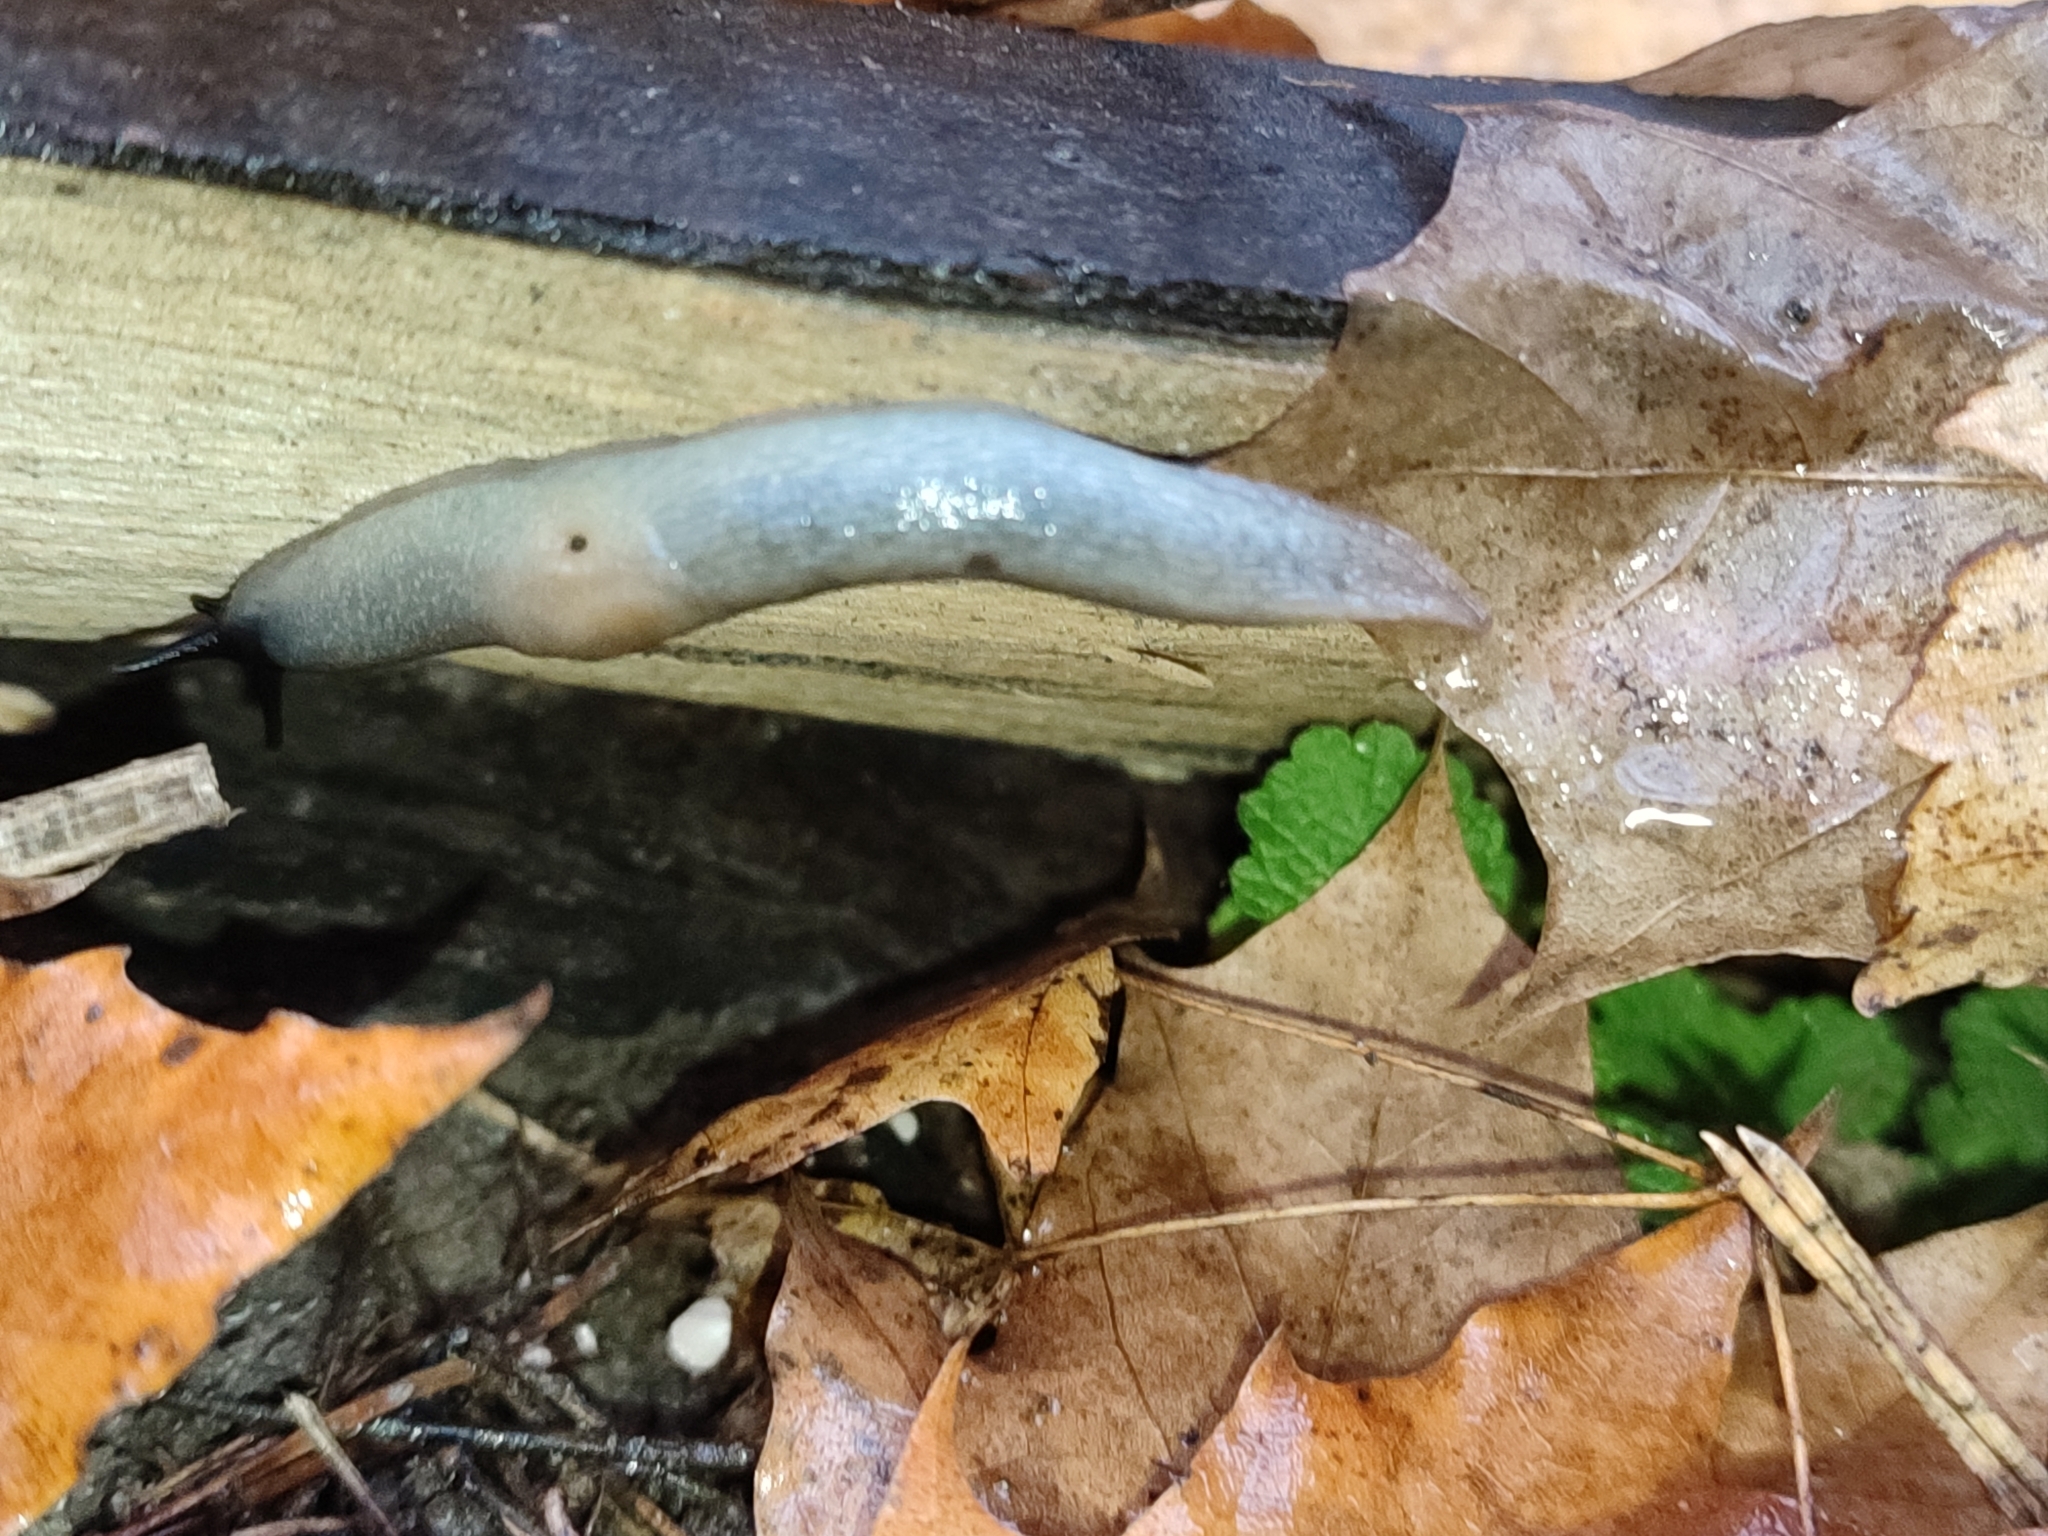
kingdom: Animalia
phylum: Mollusca
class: Gastropoda
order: Stylommatophora
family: Agriolimacidae
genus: Krynickillus
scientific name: Krynickillus melanocephalus
